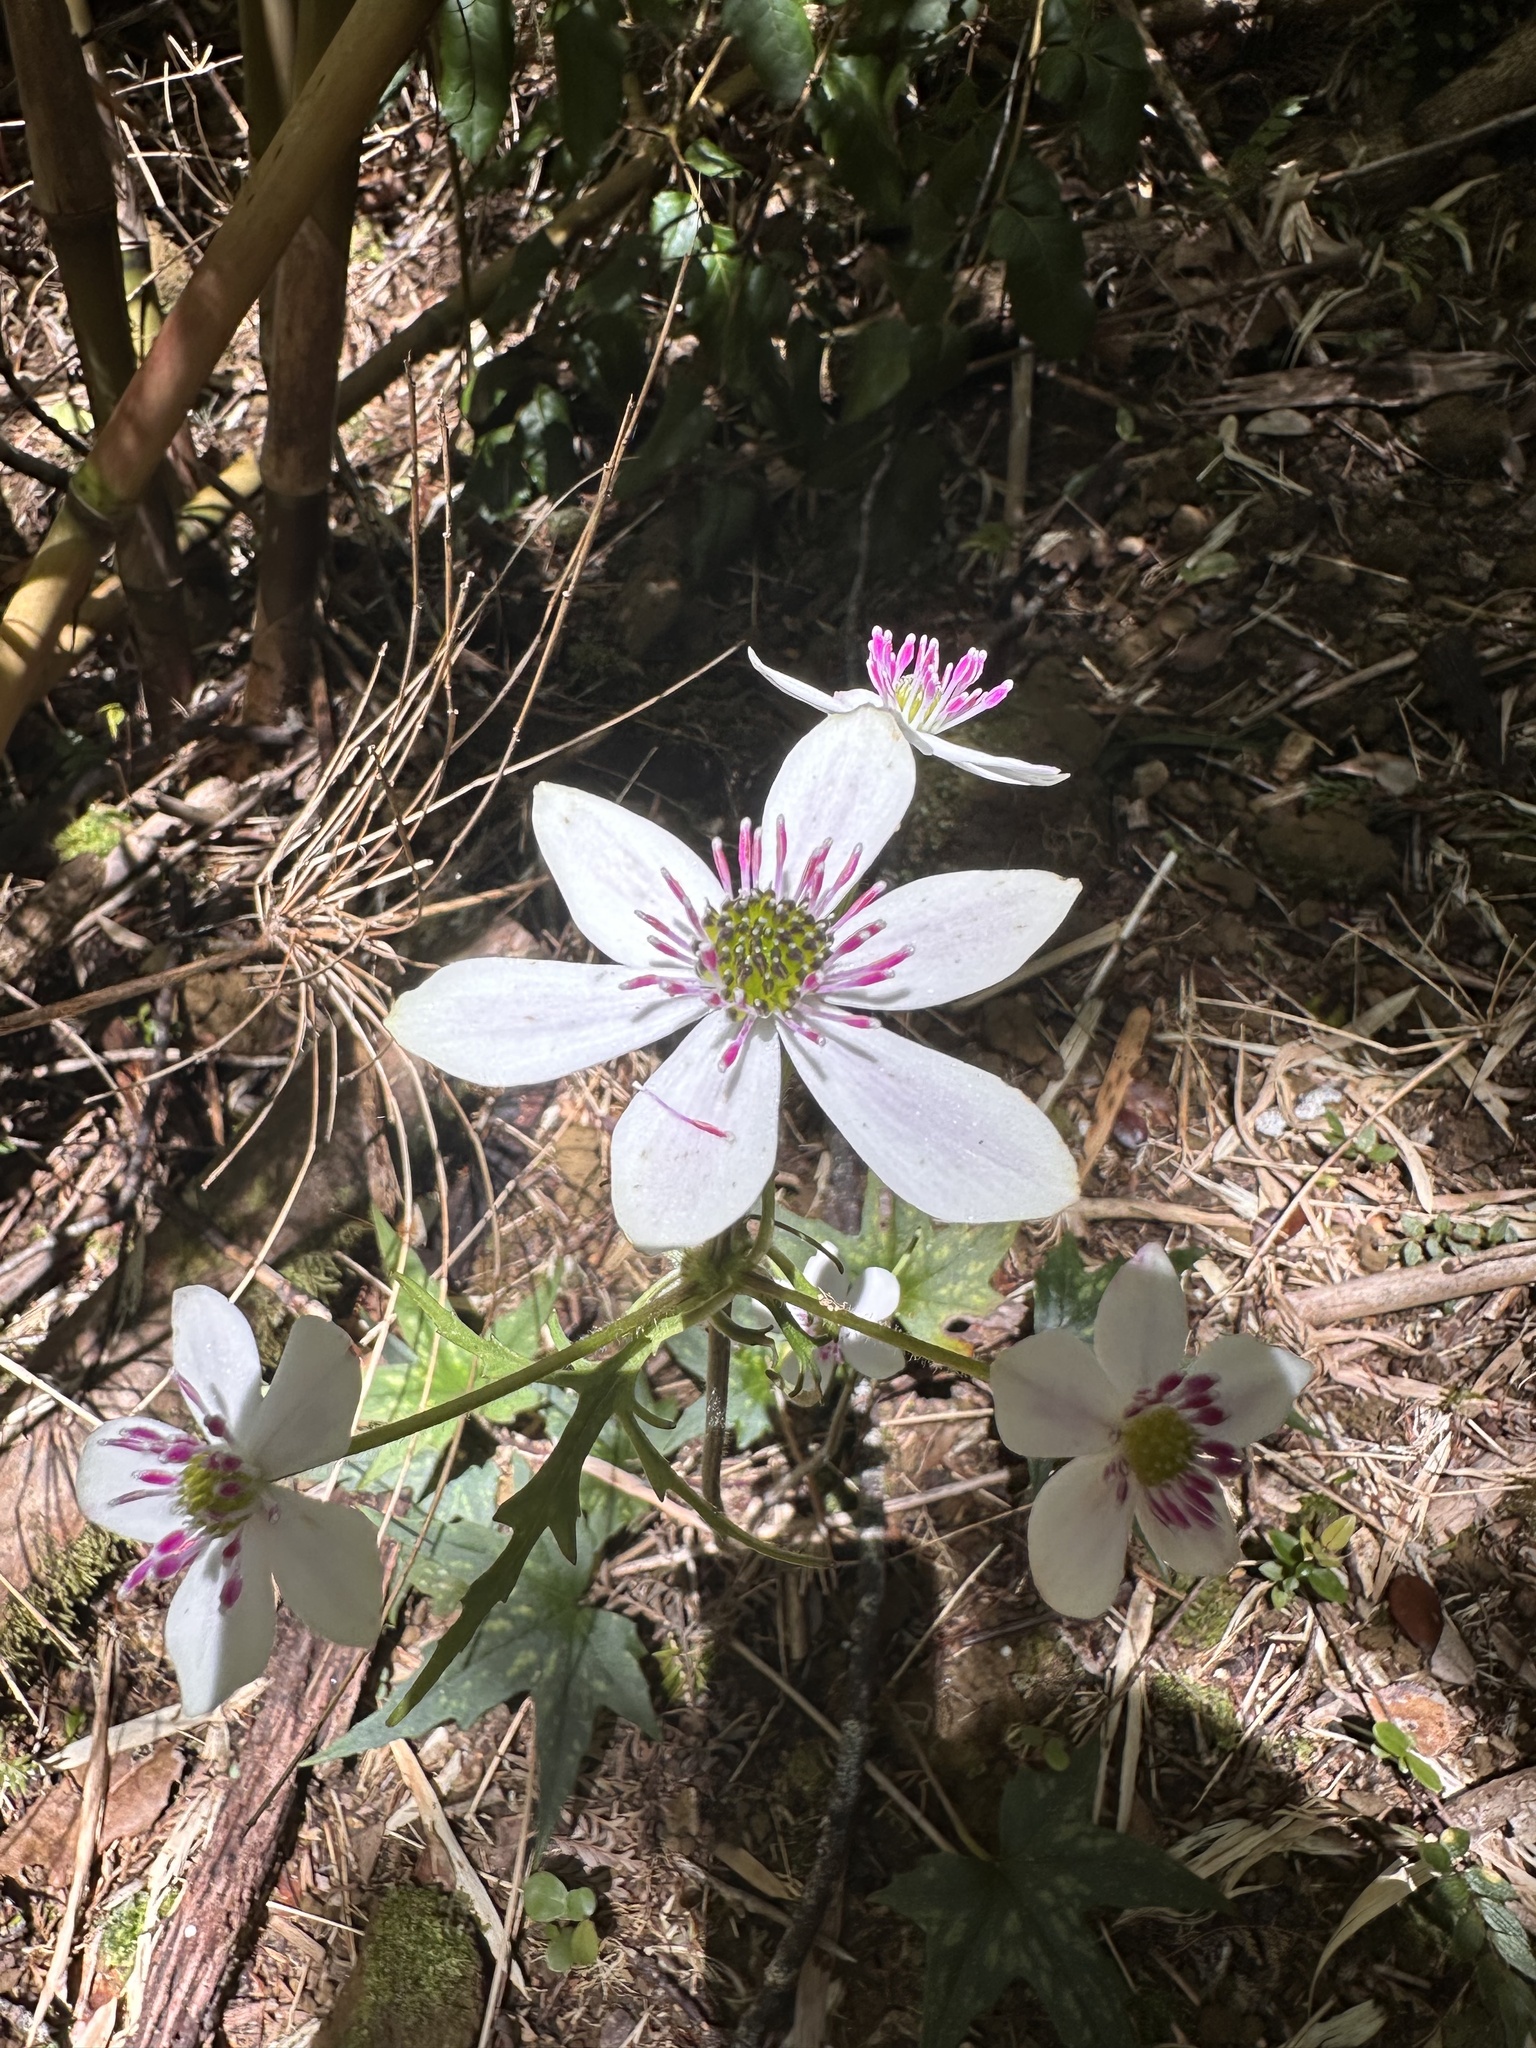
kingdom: Plantae
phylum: Tracheophyta
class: Magnoliopsida
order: Ranunculales
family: Ranunculaceae
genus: Knowltonia
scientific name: Knowltonia hepaticifolia
